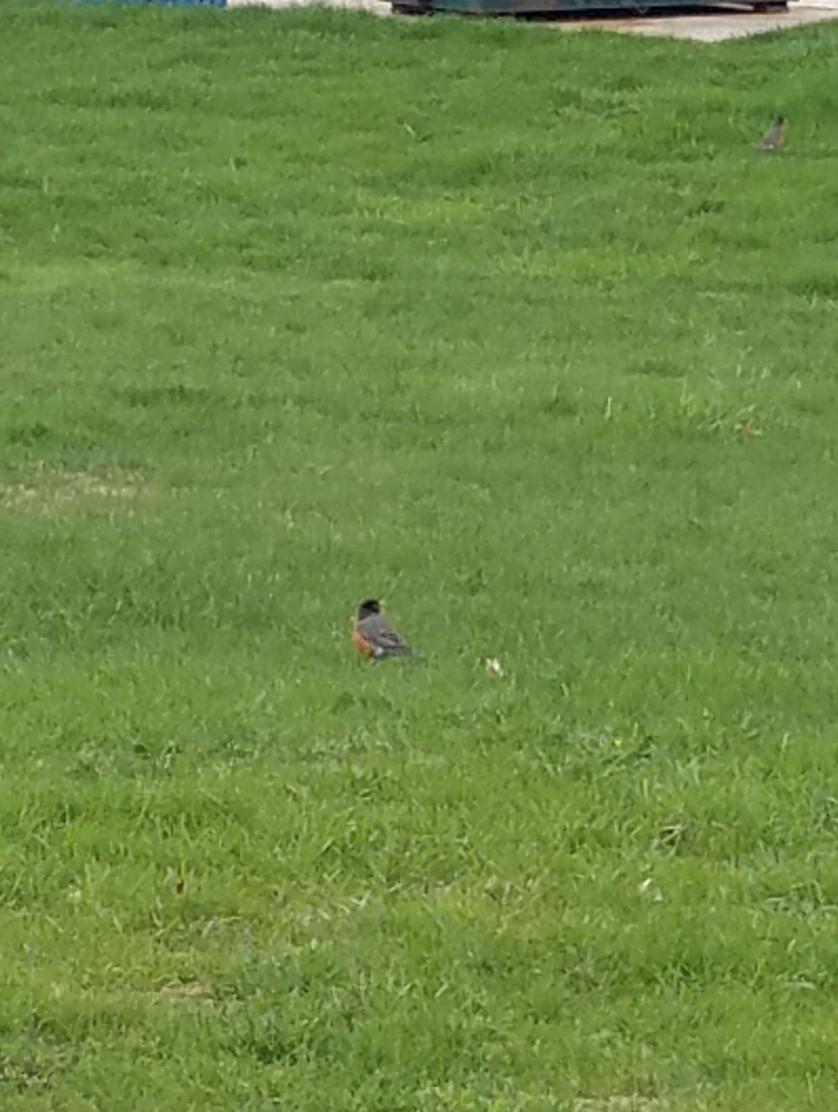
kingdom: Animalia
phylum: Chordata
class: Aves
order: Passeriformes
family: Turdidae
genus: Turdus
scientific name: Turdus migratorius
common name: American robin
